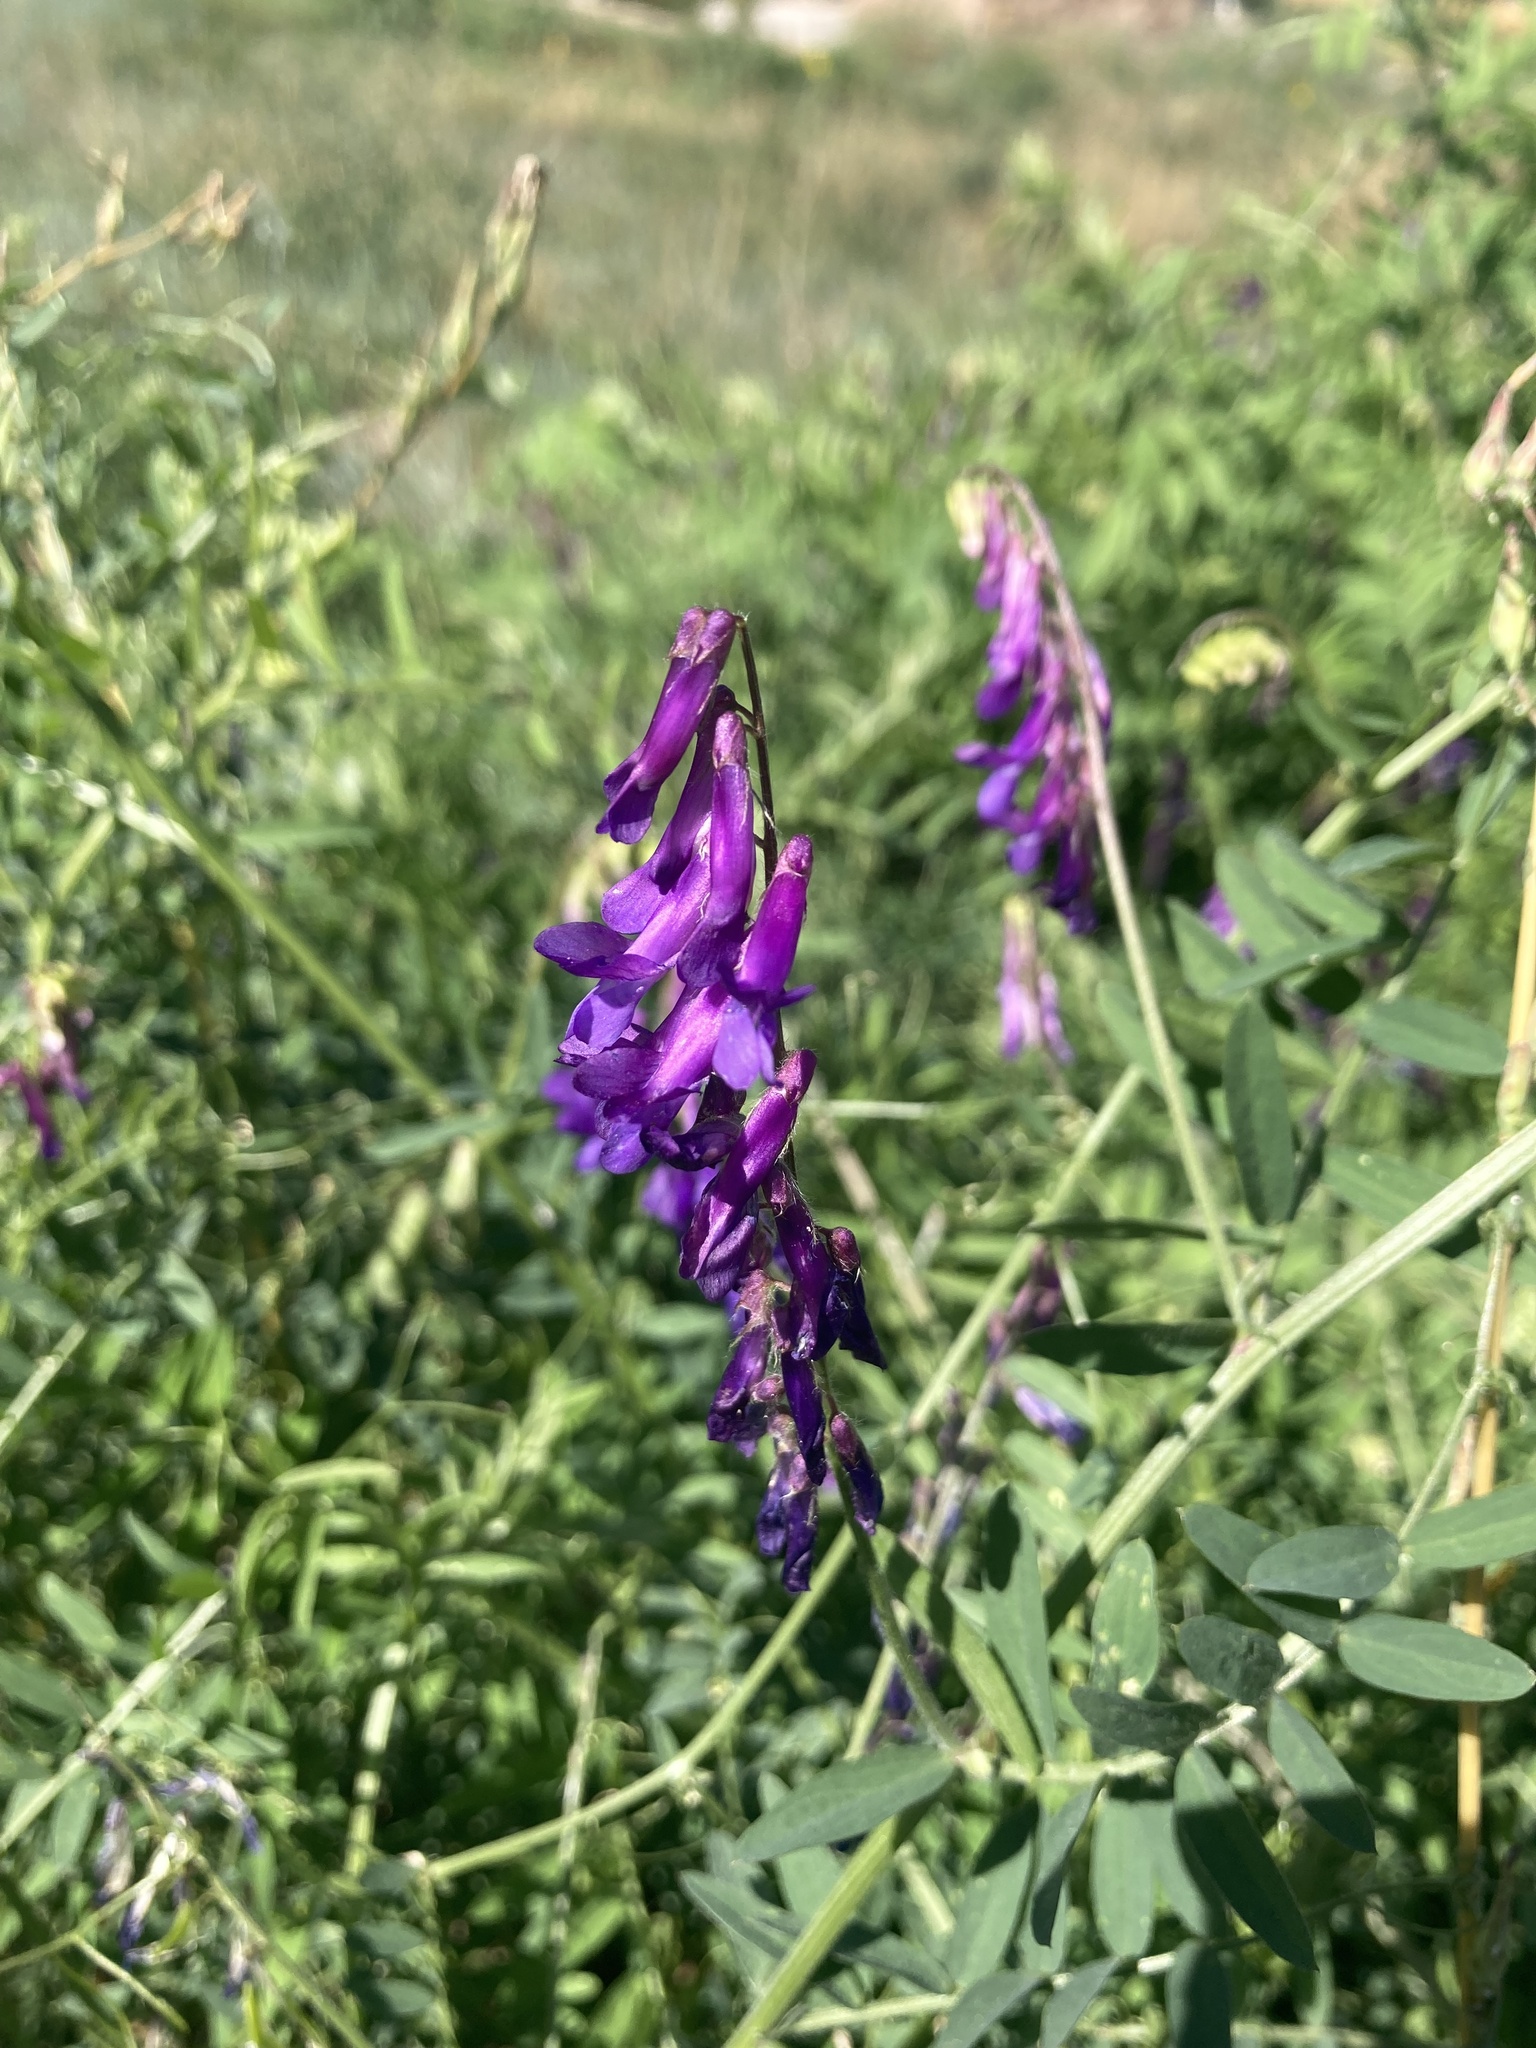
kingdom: Plantae
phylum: Tracheophyta
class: Magnoliopsida
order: Fabales
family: Fabaceae
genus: Vicia
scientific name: Vicia villosa
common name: Fodder vetch
